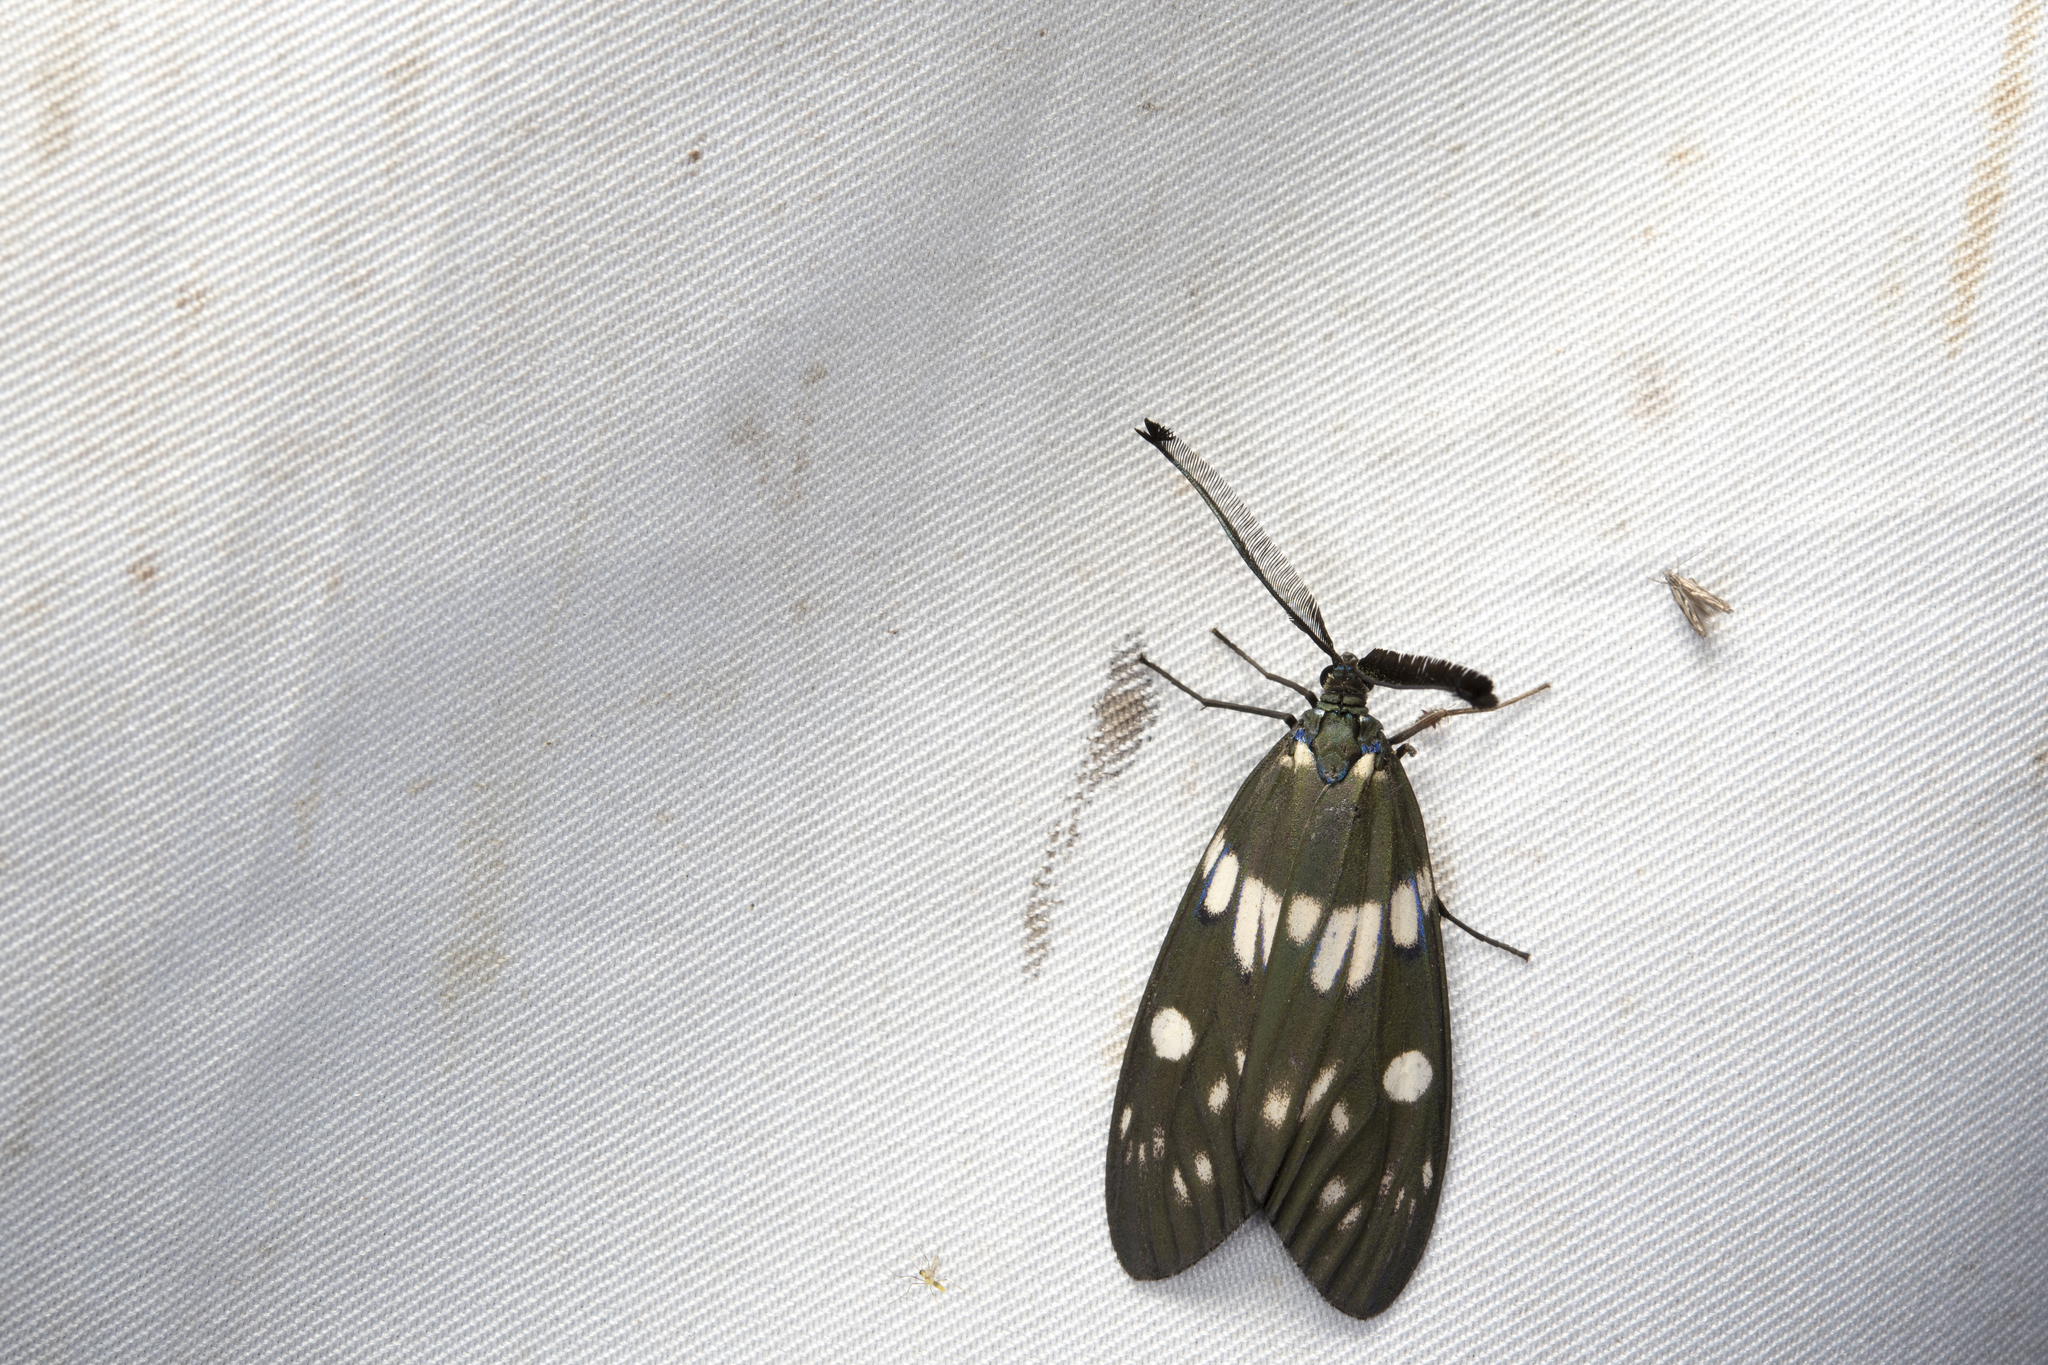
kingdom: Animalia
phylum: Arthropoda
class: Insecta
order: Lepidoptera
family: Zygaenidae
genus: Eterusia
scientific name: Eterusia aedea
